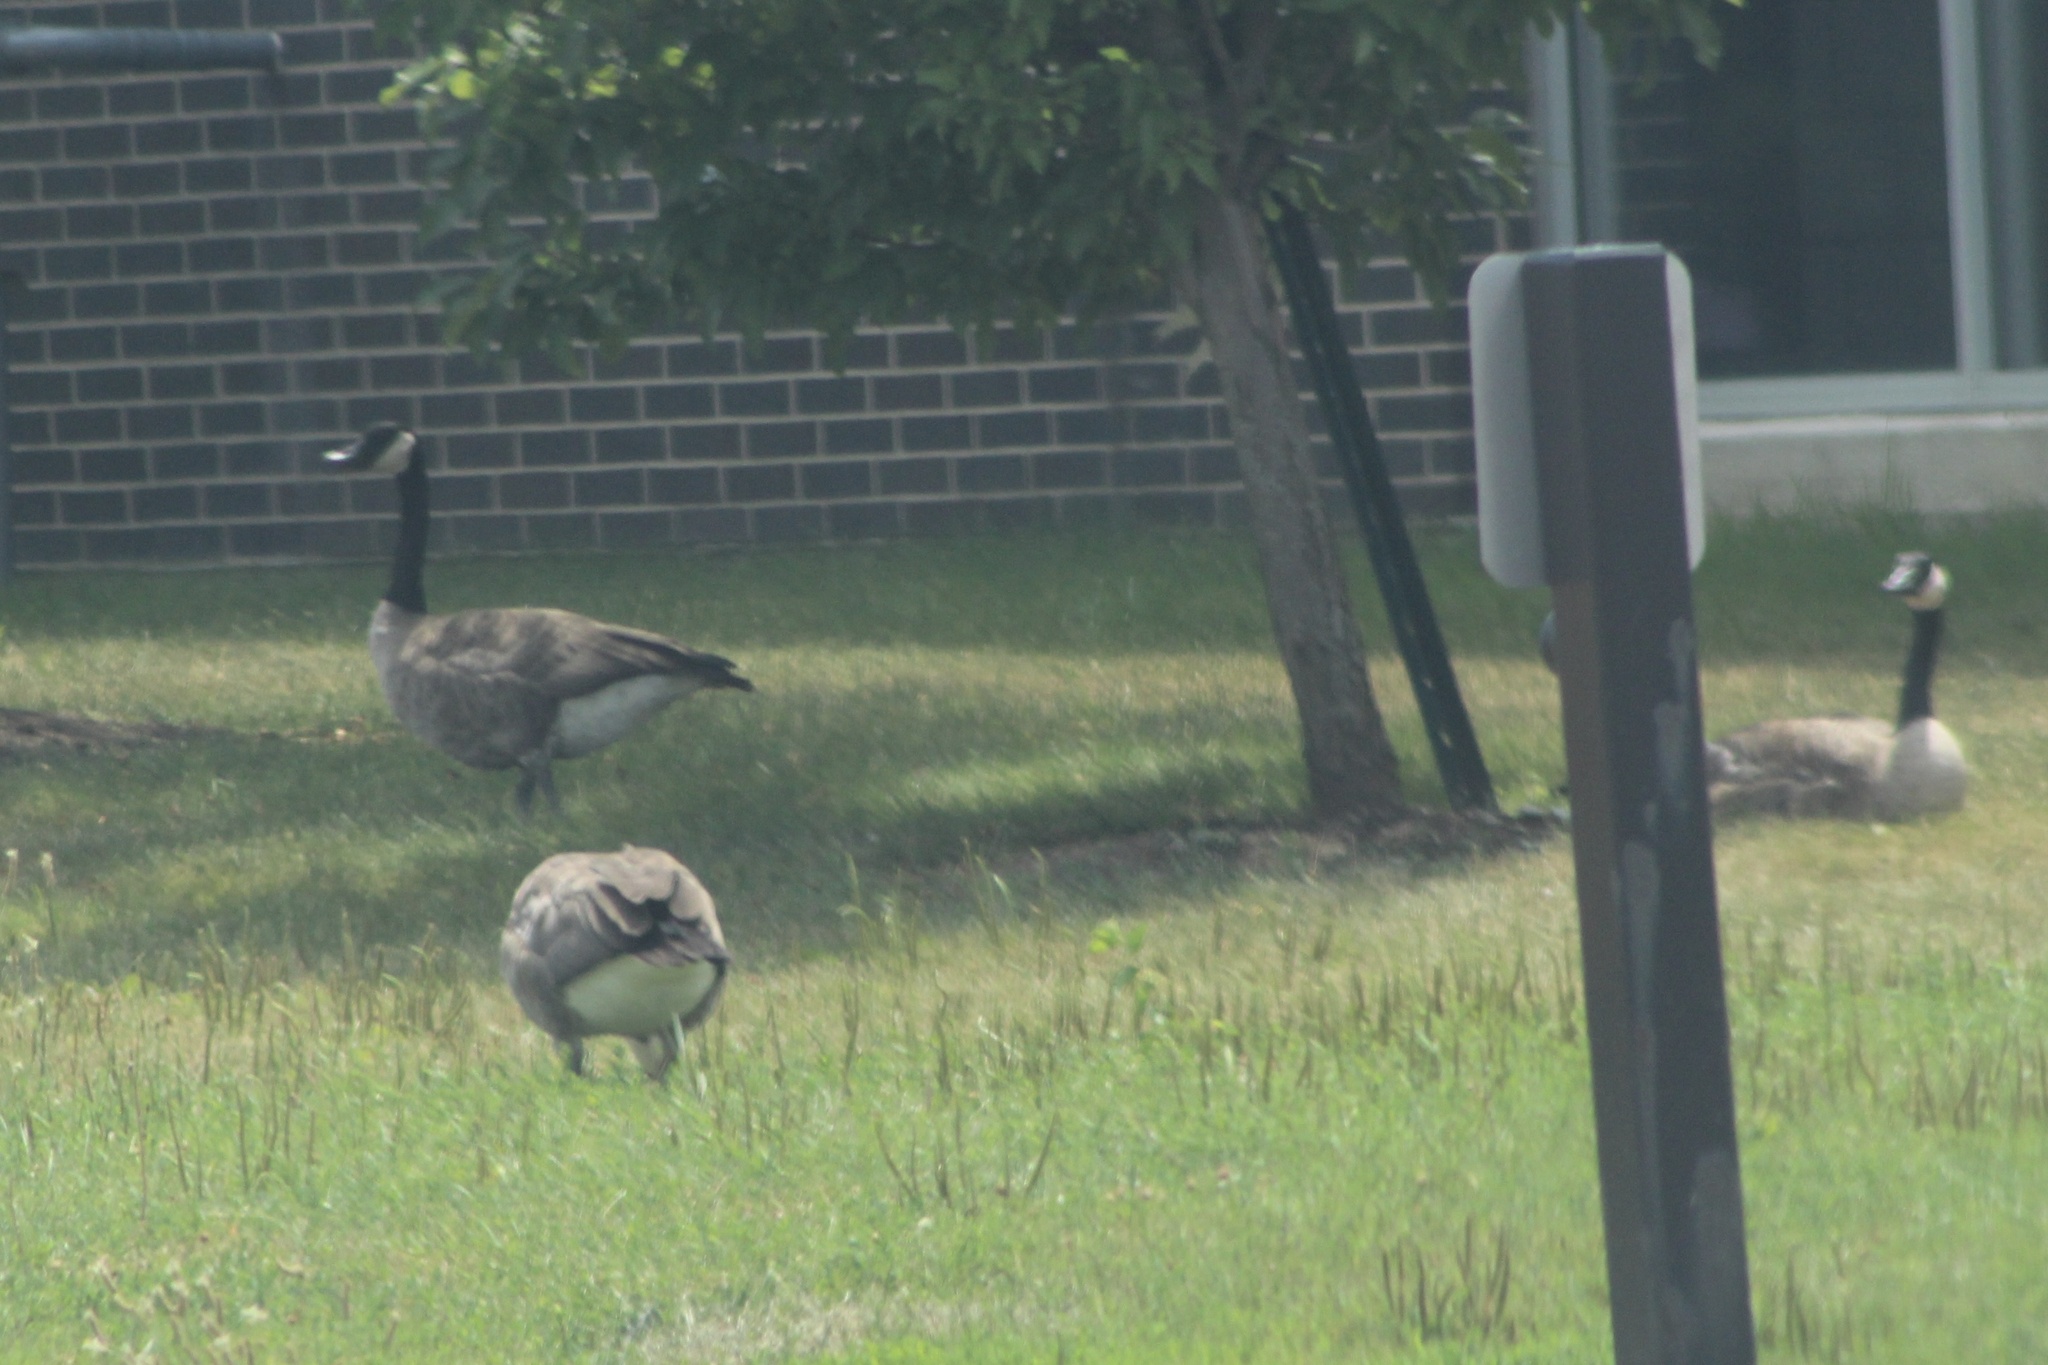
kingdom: Animalia
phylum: Chordata
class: Aves
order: Anseriformes
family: Anatidae
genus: Branta
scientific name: Branta canadensis
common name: Canada goose
